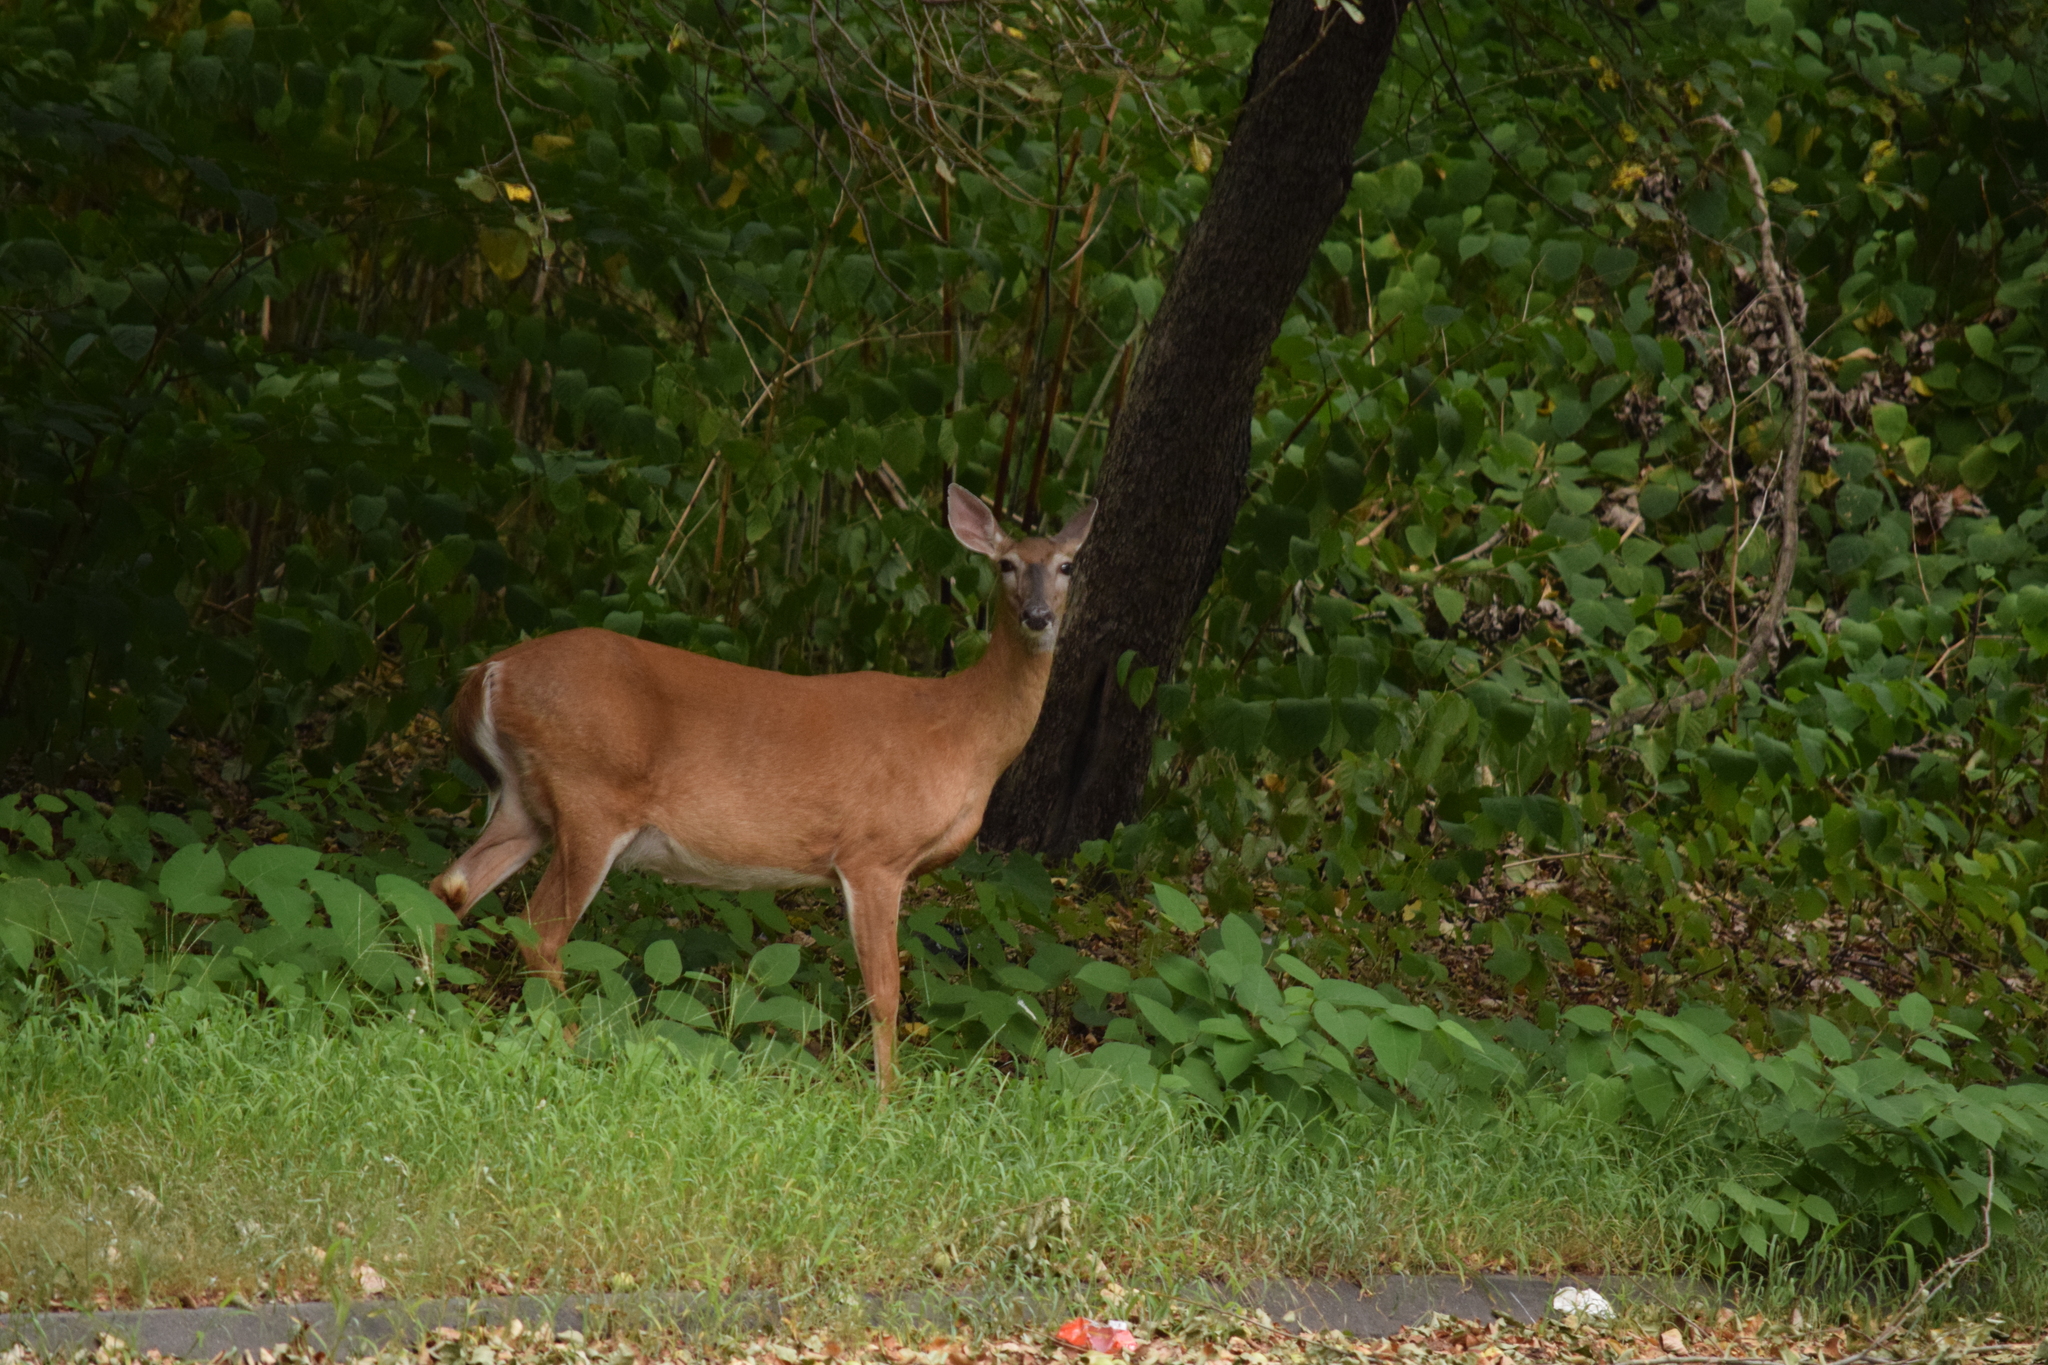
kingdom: Animalia
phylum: Chordata
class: Mammalia
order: Artiodactyla
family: Cervidae
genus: Odocoileus
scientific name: Odocoileus virginianus
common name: White-tailed deer
